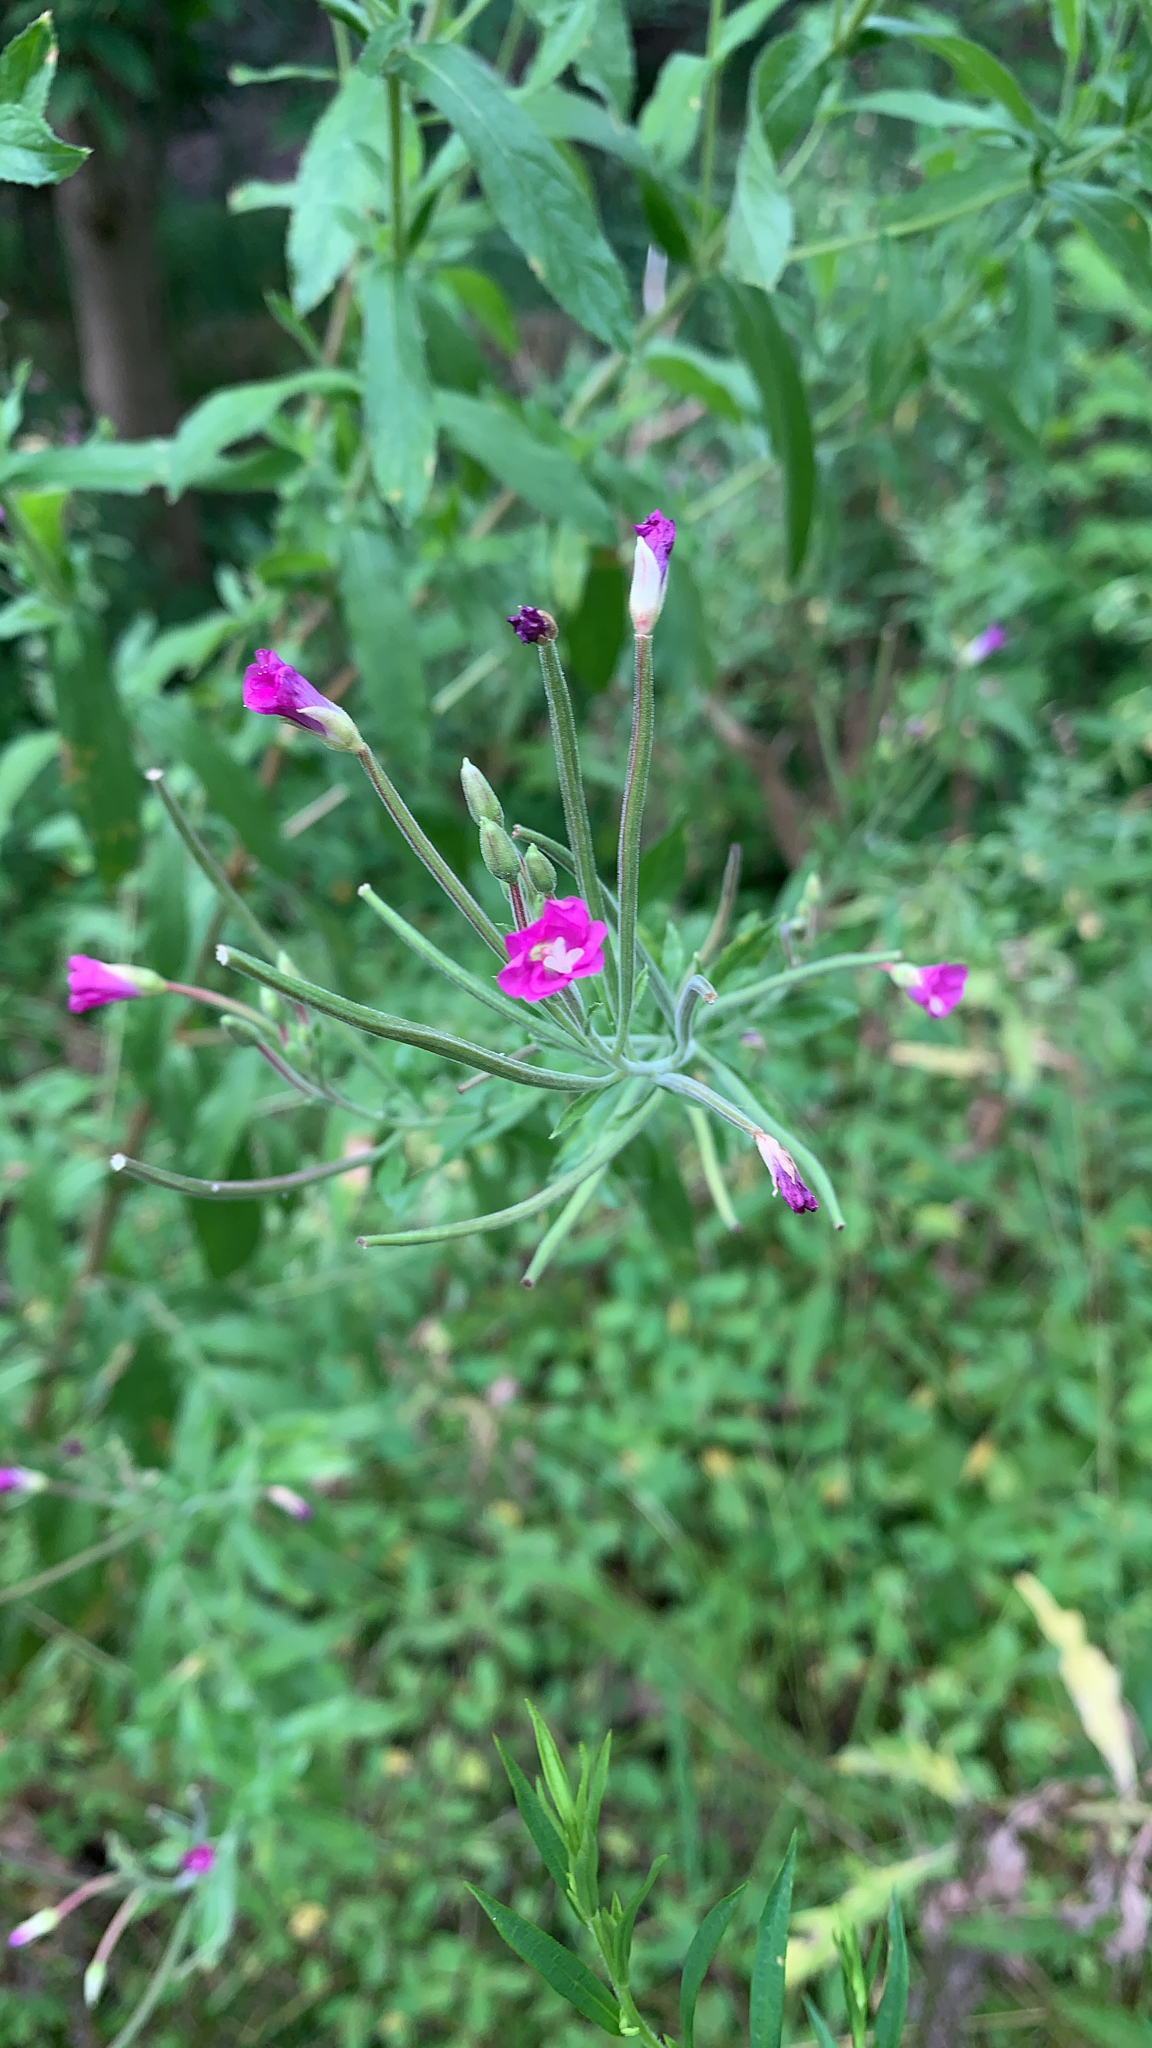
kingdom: Plantae
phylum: Tracheophyta
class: Magnoliopsida
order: Myrtales
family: Onagraceae
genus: Epilobium
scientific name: Epilobium hirsutum
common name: Great willowherb
